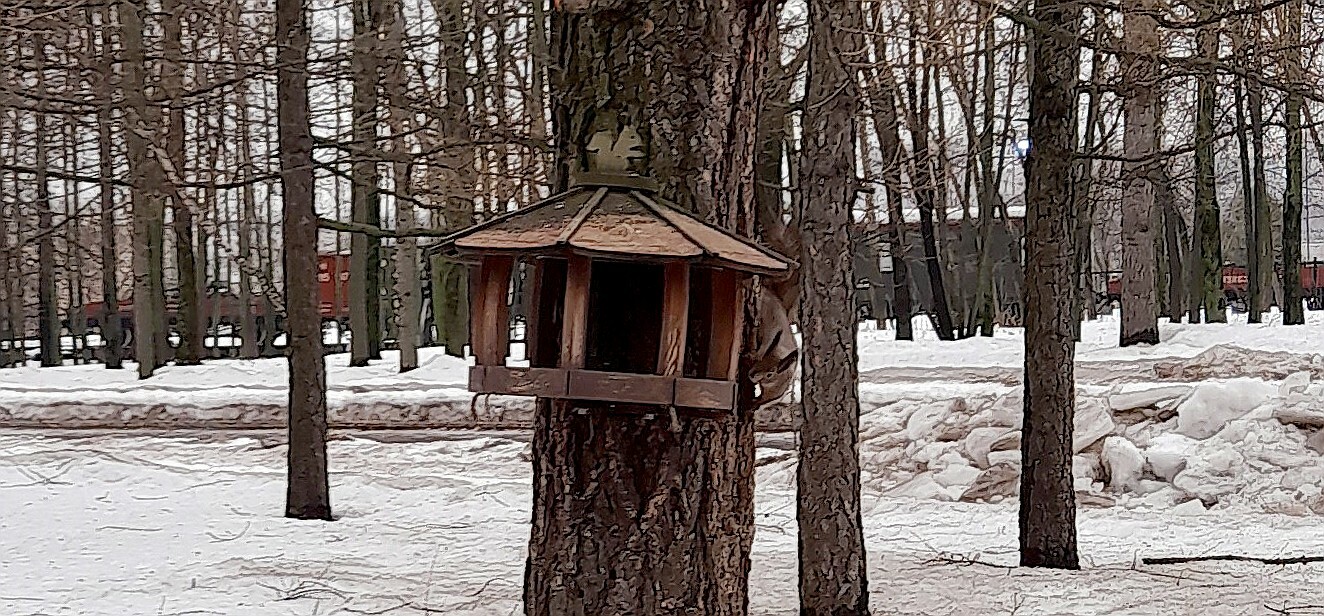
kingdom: Animalia
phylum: Chordata
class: Mammalia
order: Rodentia
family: Sciuridae
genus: Sciurus
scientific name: Sciurus vulgaris
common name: Eurasian red squirrel
